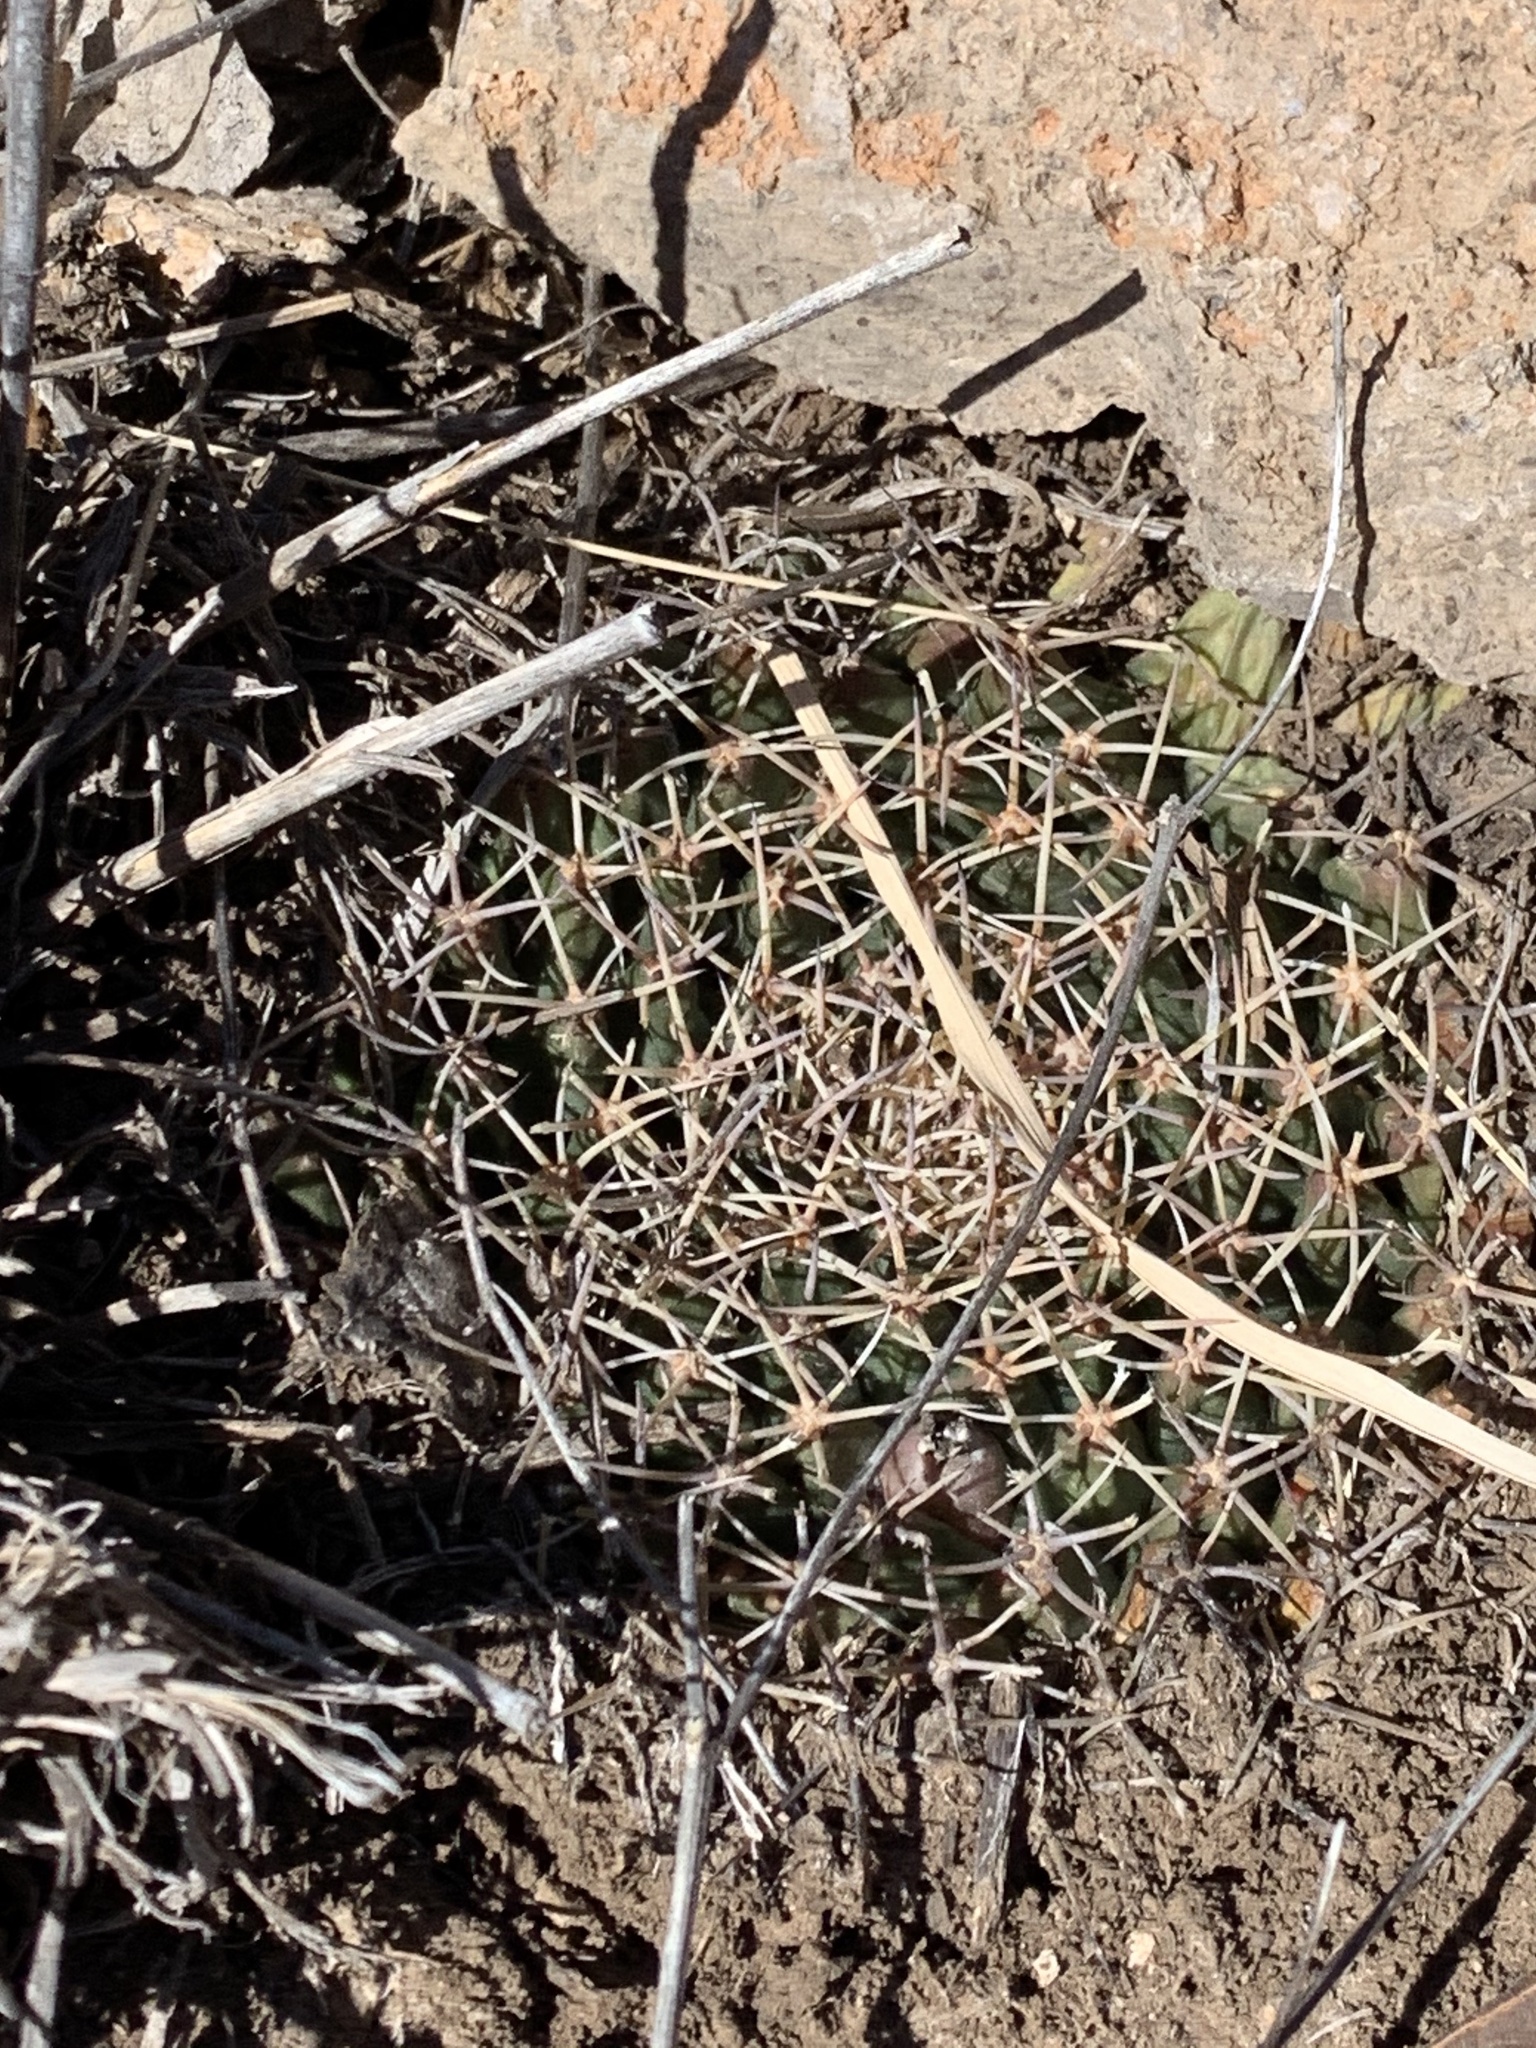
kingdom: Plantae
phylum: Tracheophyta
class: Magnoliopsida
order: Caryophyllales
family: Cactaceae
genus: Mammillaria
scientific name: Mammillaria heyderi
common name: Little nipple cactus
